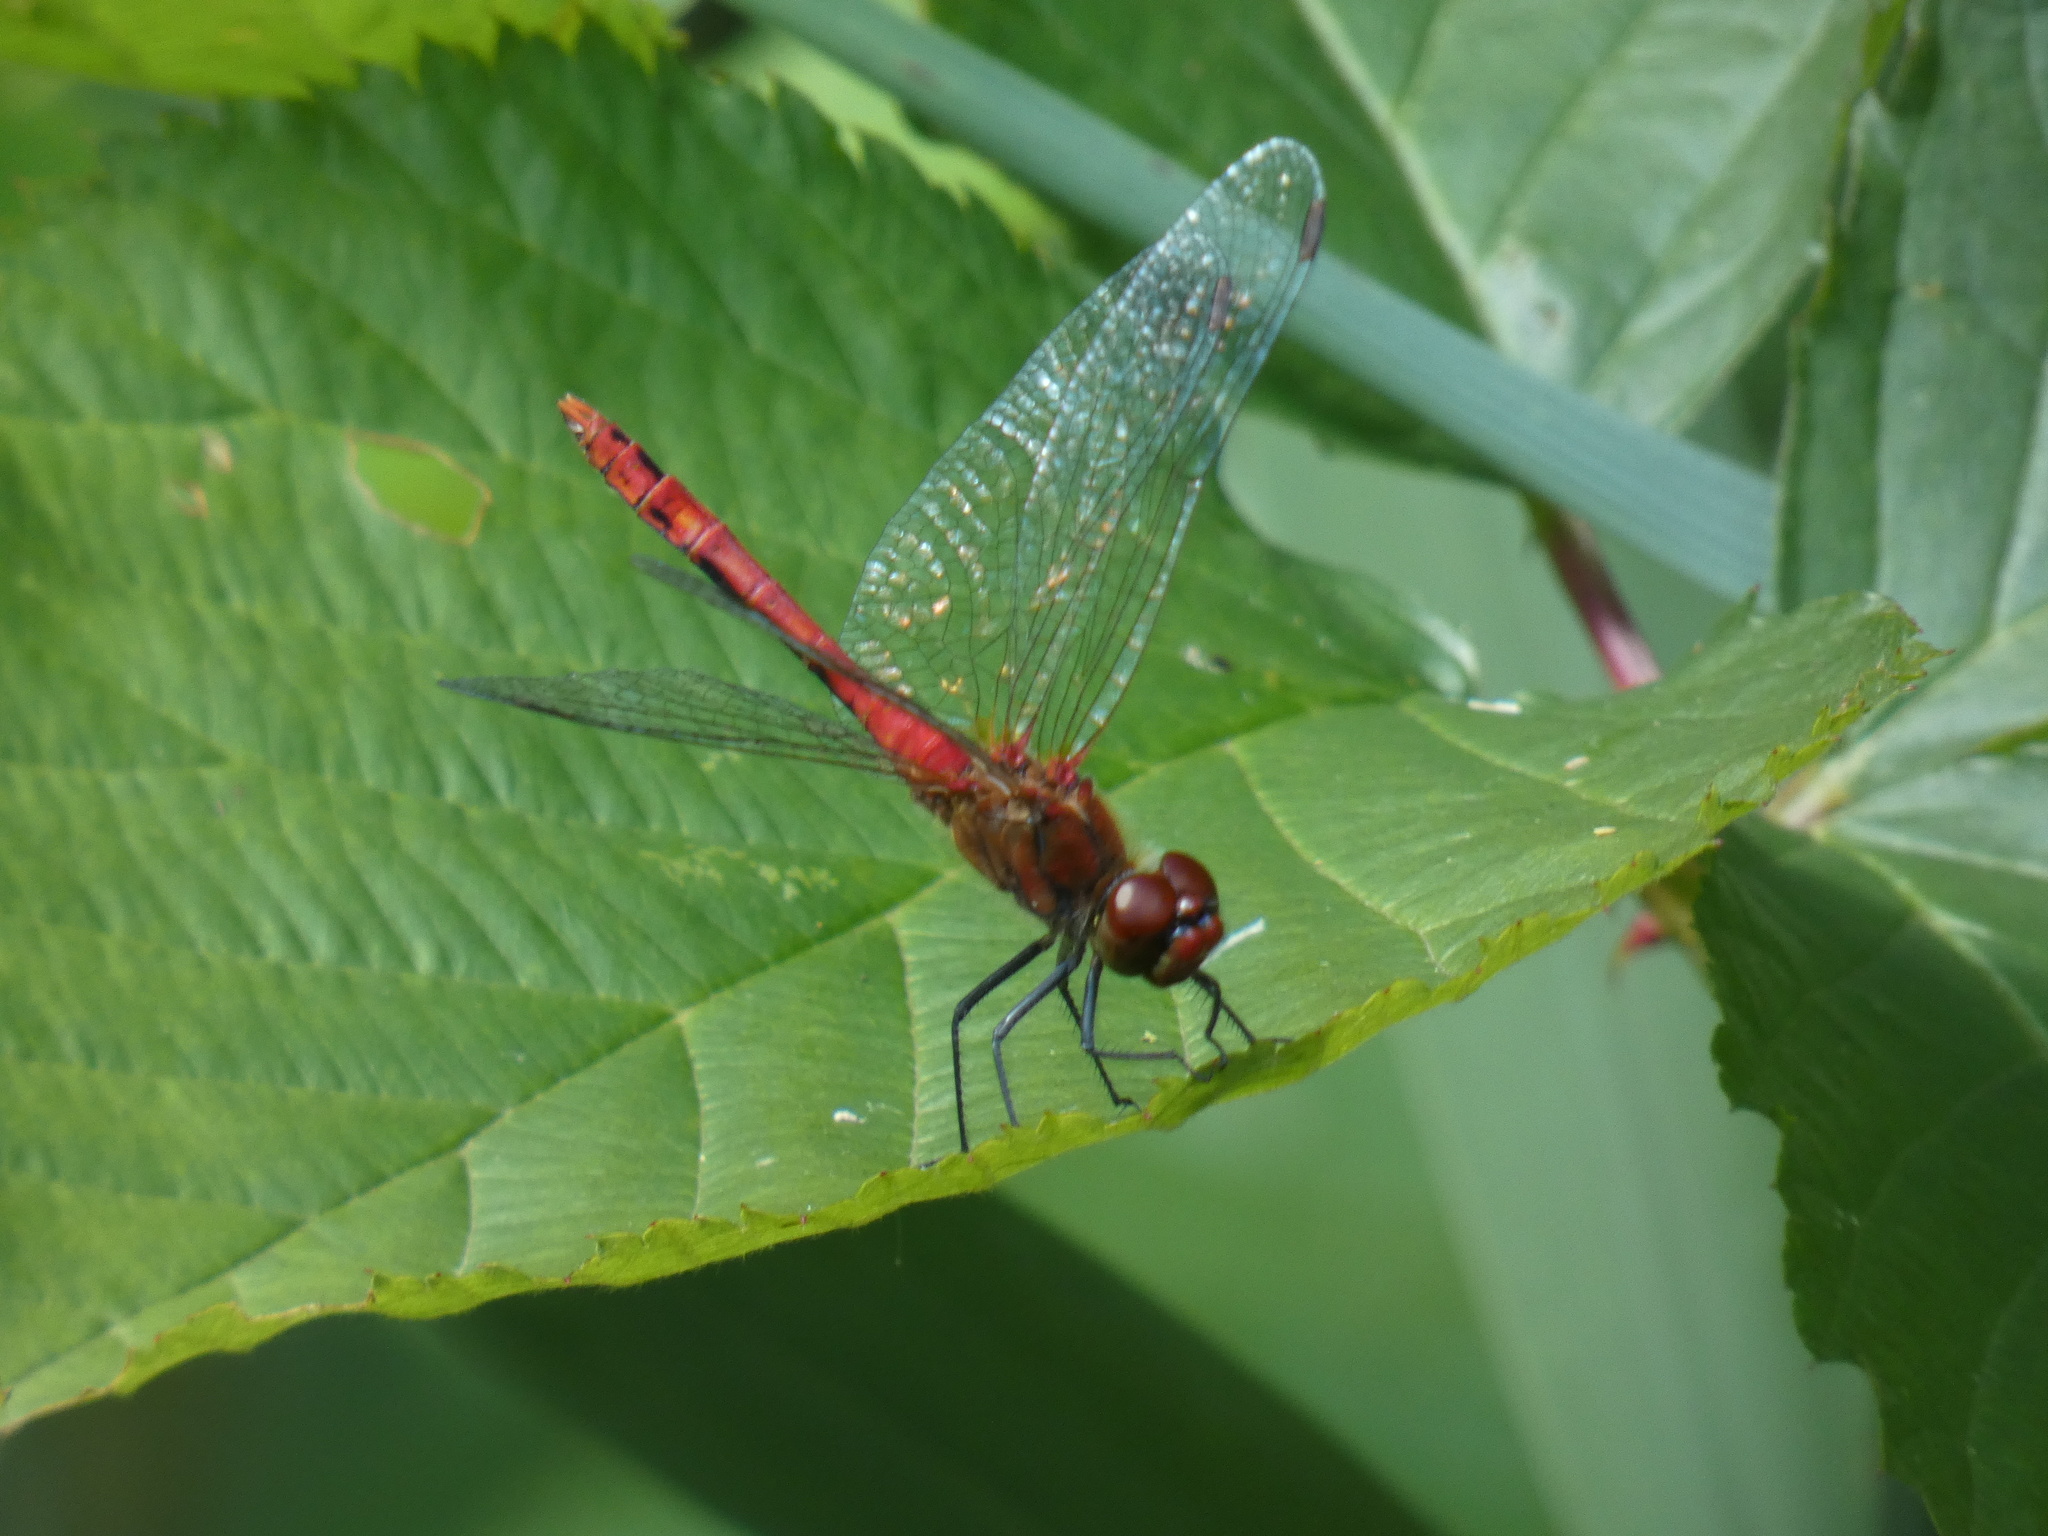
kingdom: Animalia
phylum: Arthropoda
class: Insecta
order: Odonata
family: Libellulidae
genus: Sympetrum
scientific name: Sympetrum sanguineum
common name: Ruddy darter
